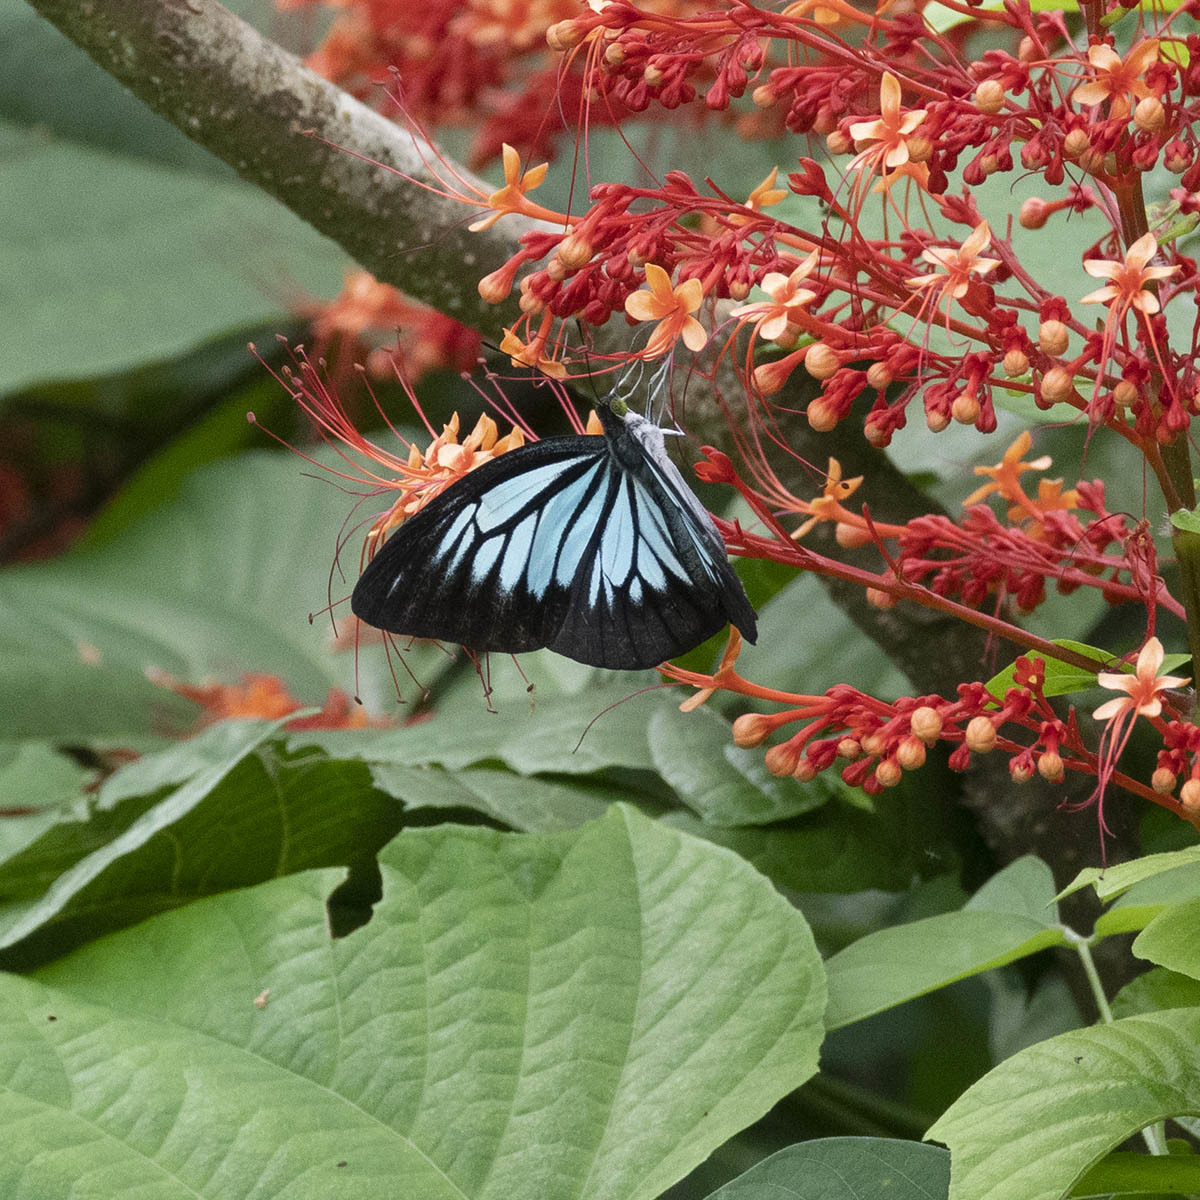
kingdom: Animalia
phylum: Arthropoda
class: Insecta
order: Lepidoptera
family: Pieridae
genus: Pareronia
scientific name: Pareronia ceylanica
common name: Dark wanderer
